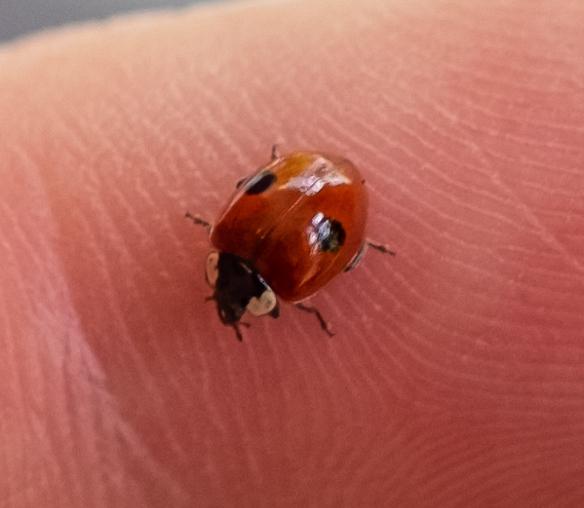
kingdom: Animalia
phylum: Arthropoda
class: Insecta
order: Coleoptera
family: Coccinellidae
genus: Adalia
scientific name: Adalia bipunctata
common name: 2-spot ladybird
